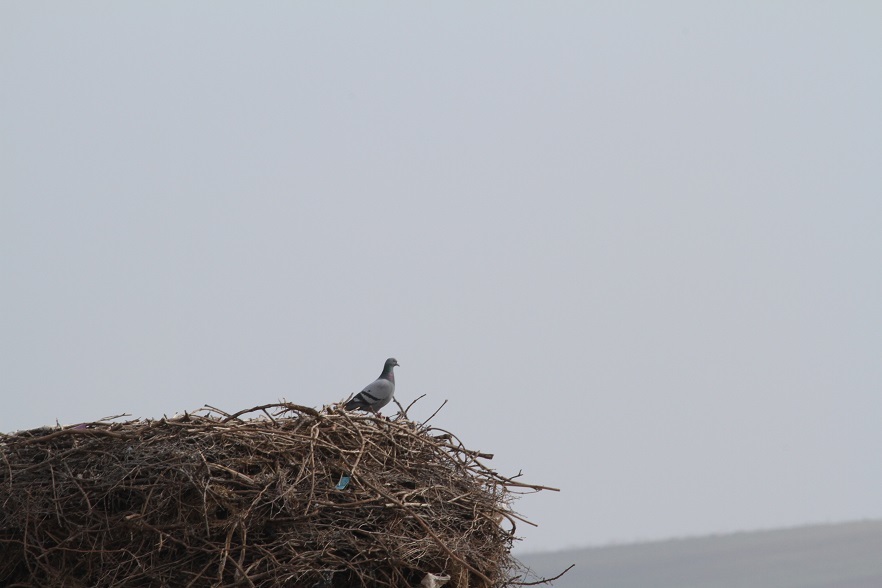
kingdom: Animalia
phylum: Chordata
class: Aves
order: Columbiformes
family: Columbidae
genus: Columba
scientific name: Columba livia
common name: Rock pigeon
